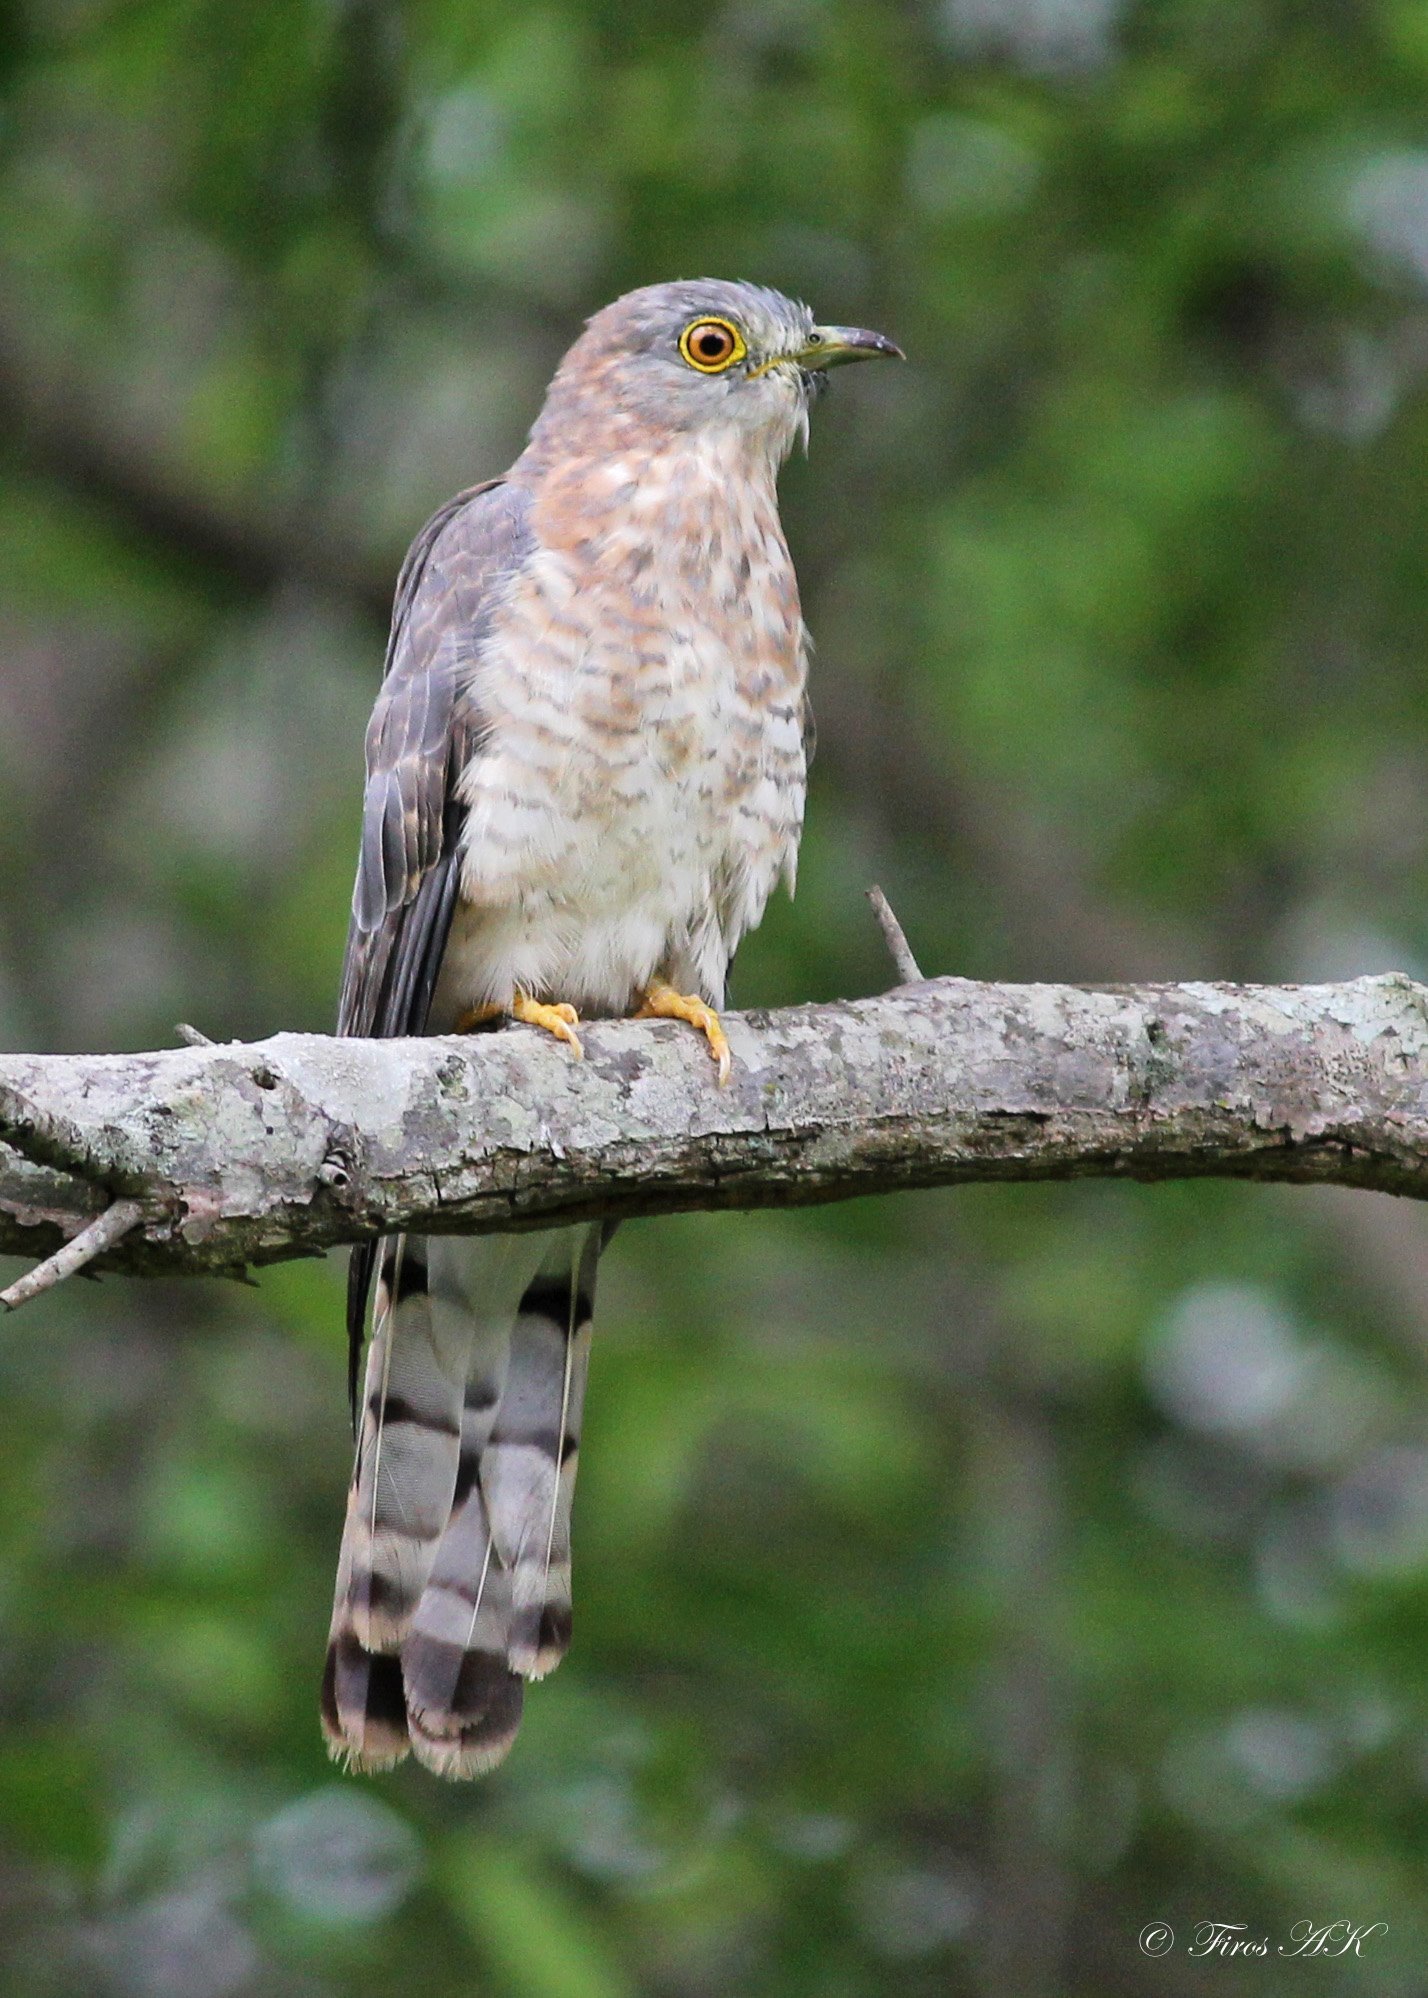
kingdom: Animalia
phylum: Chordata
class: Aves
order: Cuculiformes
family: Cuculidae
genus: Cuculus
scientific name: Cuculus varius
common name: Common hawk cuckoo
